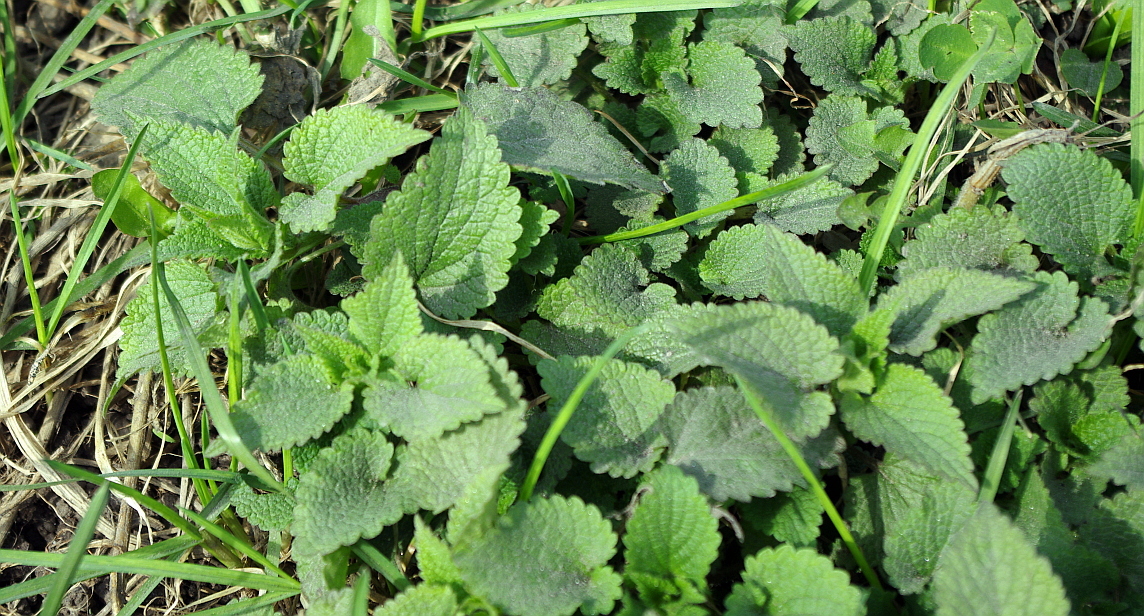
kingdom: Plantae
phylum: Tracheophyta
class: Magnoliopsida
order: Lamiales
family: Lamiaceae
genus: Lamium
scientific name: Lamium album
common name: White dead-nettle
